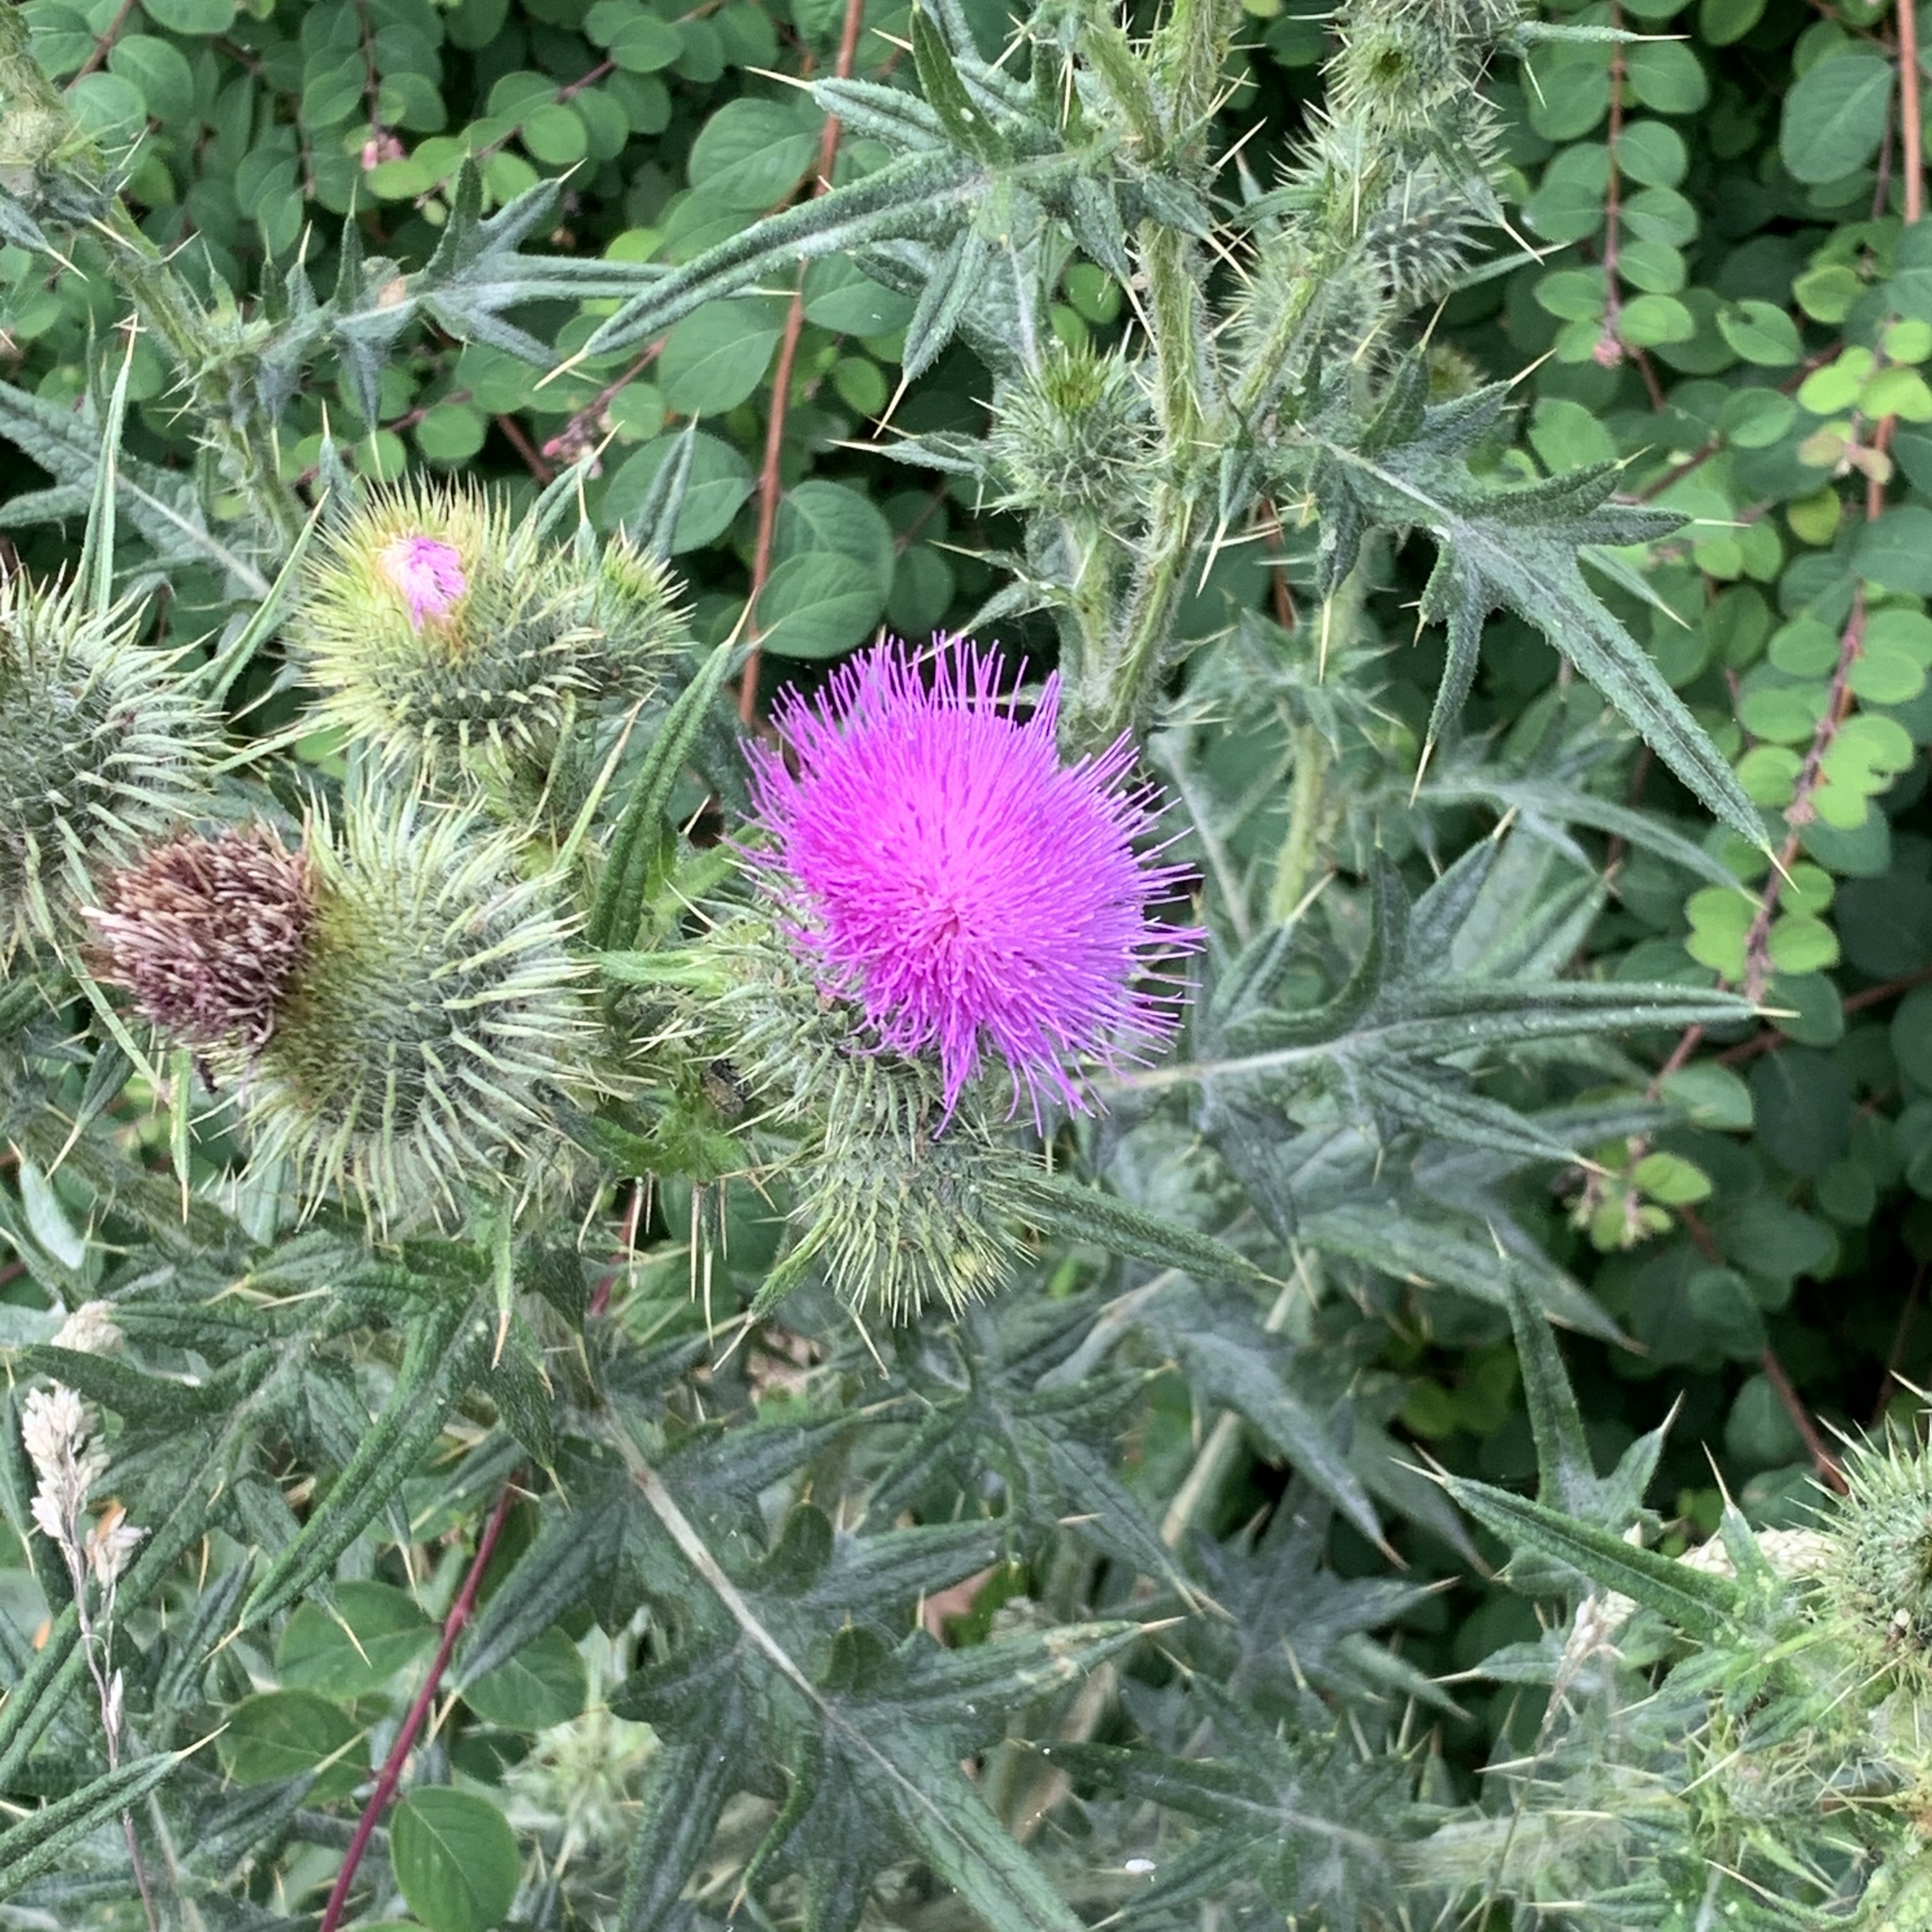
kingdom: Plantae
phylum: Tracheophyta
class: Magnoliopsida
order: Asterales
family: Asteraceae
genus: Cirsium
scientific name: Cirsium vulgare
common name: Bull thistle
